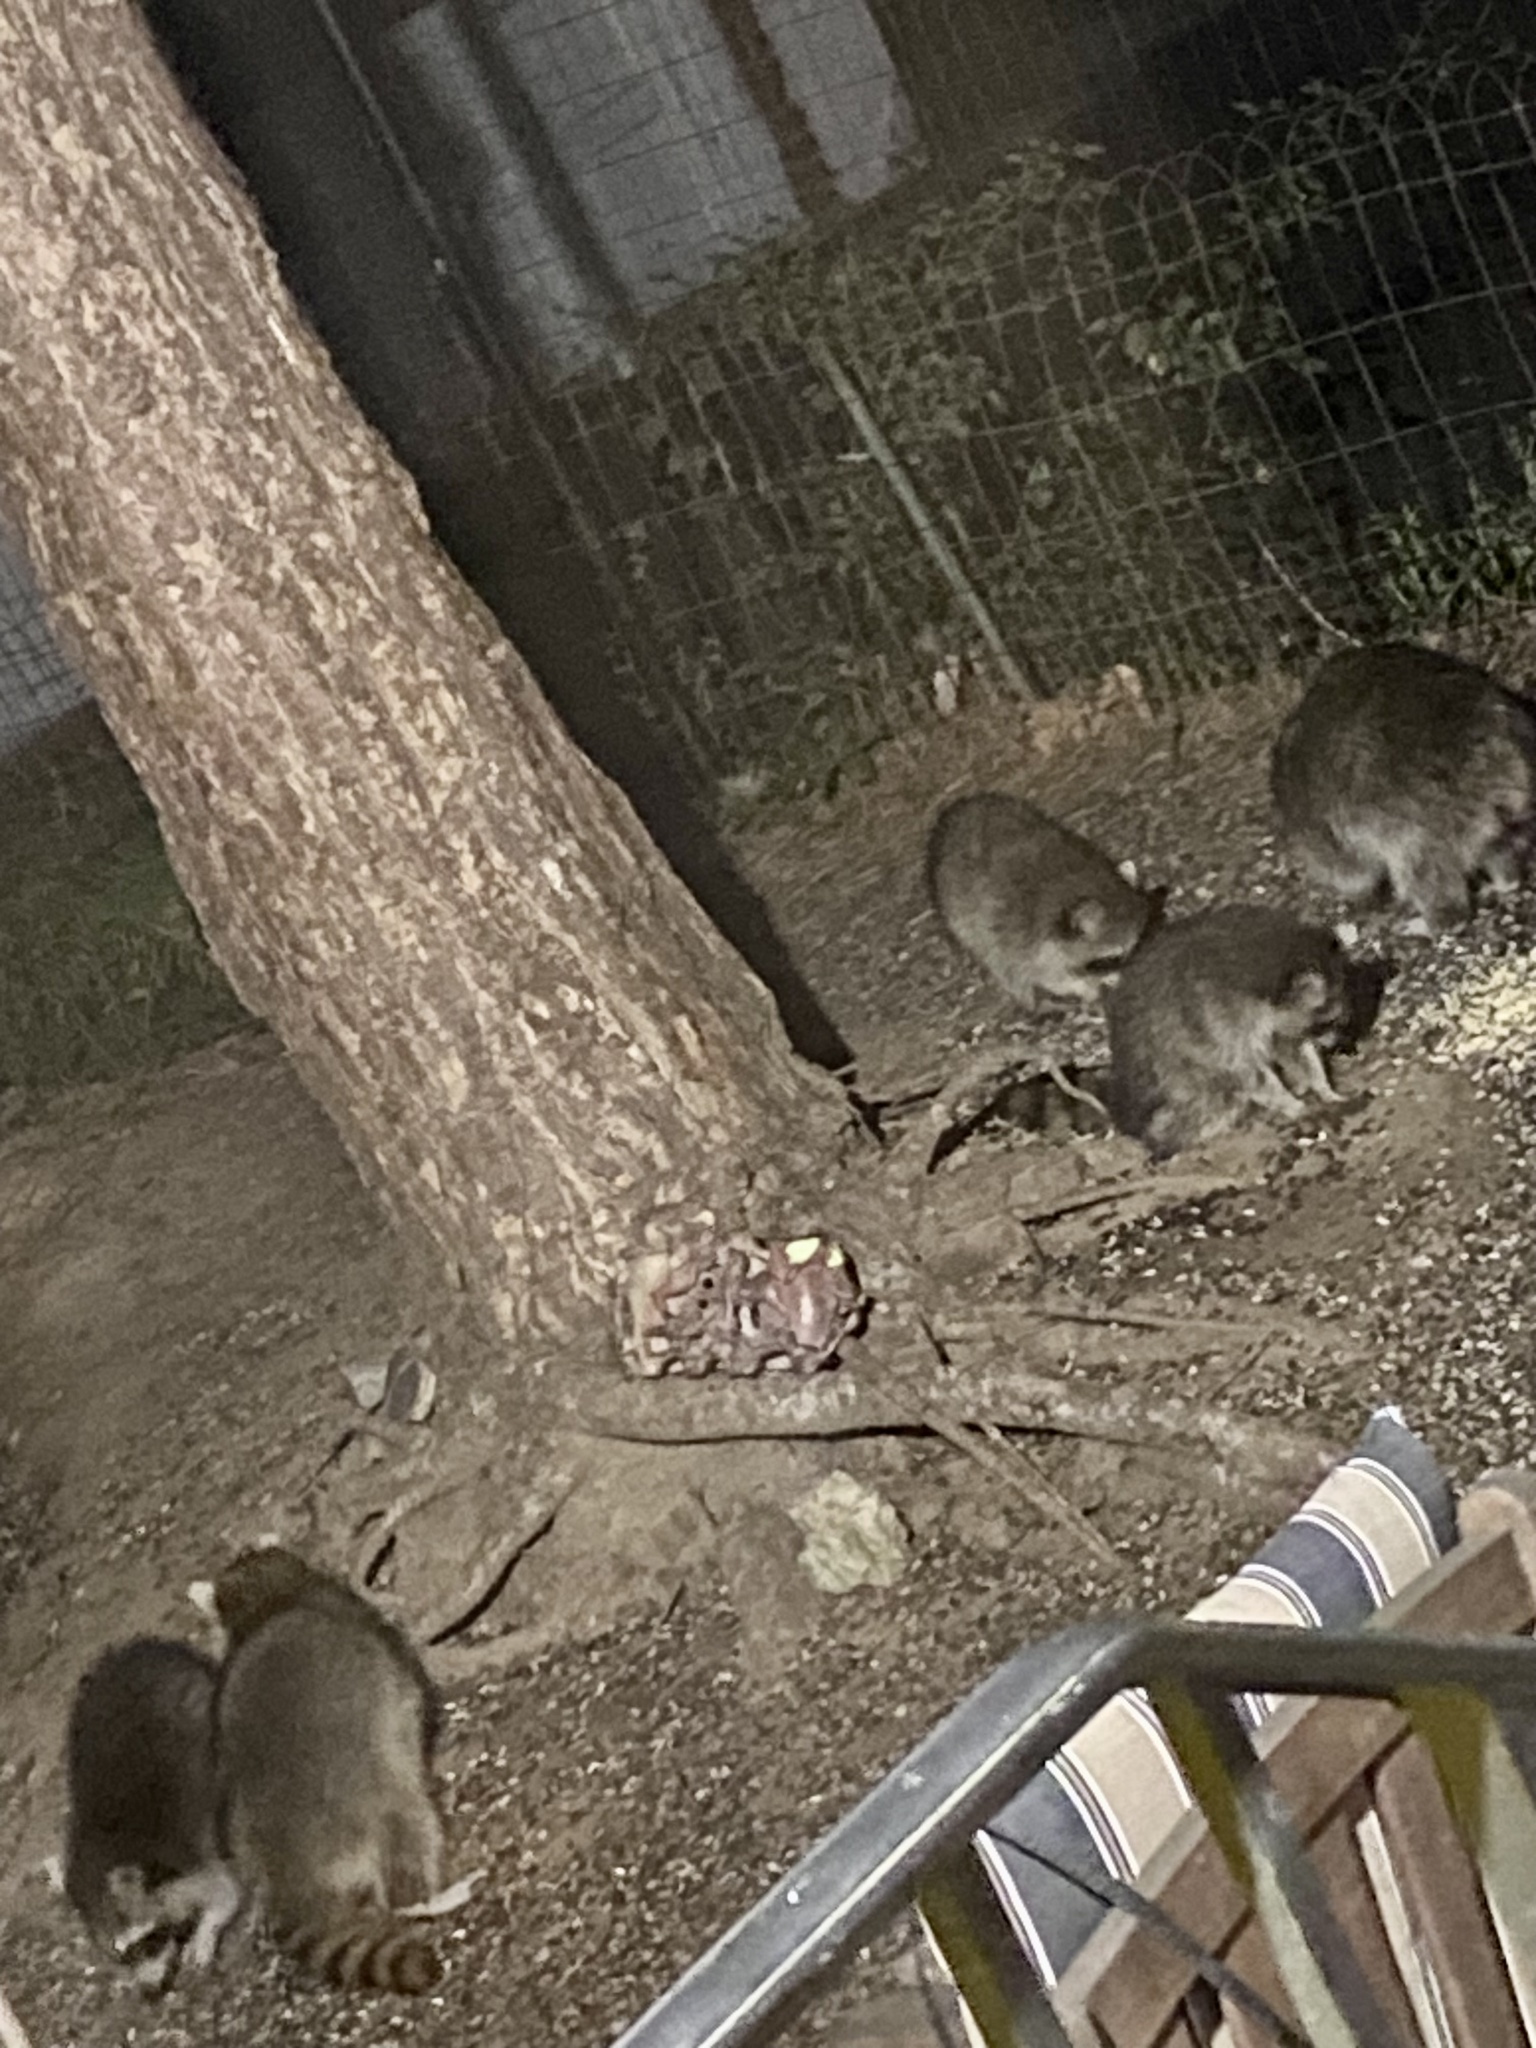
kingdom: Animalia
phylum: Chordata
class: Mammalia
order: Carnivora
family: Procyonidae
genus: Procyon
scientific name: Procyon lotor
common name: Raccoon
